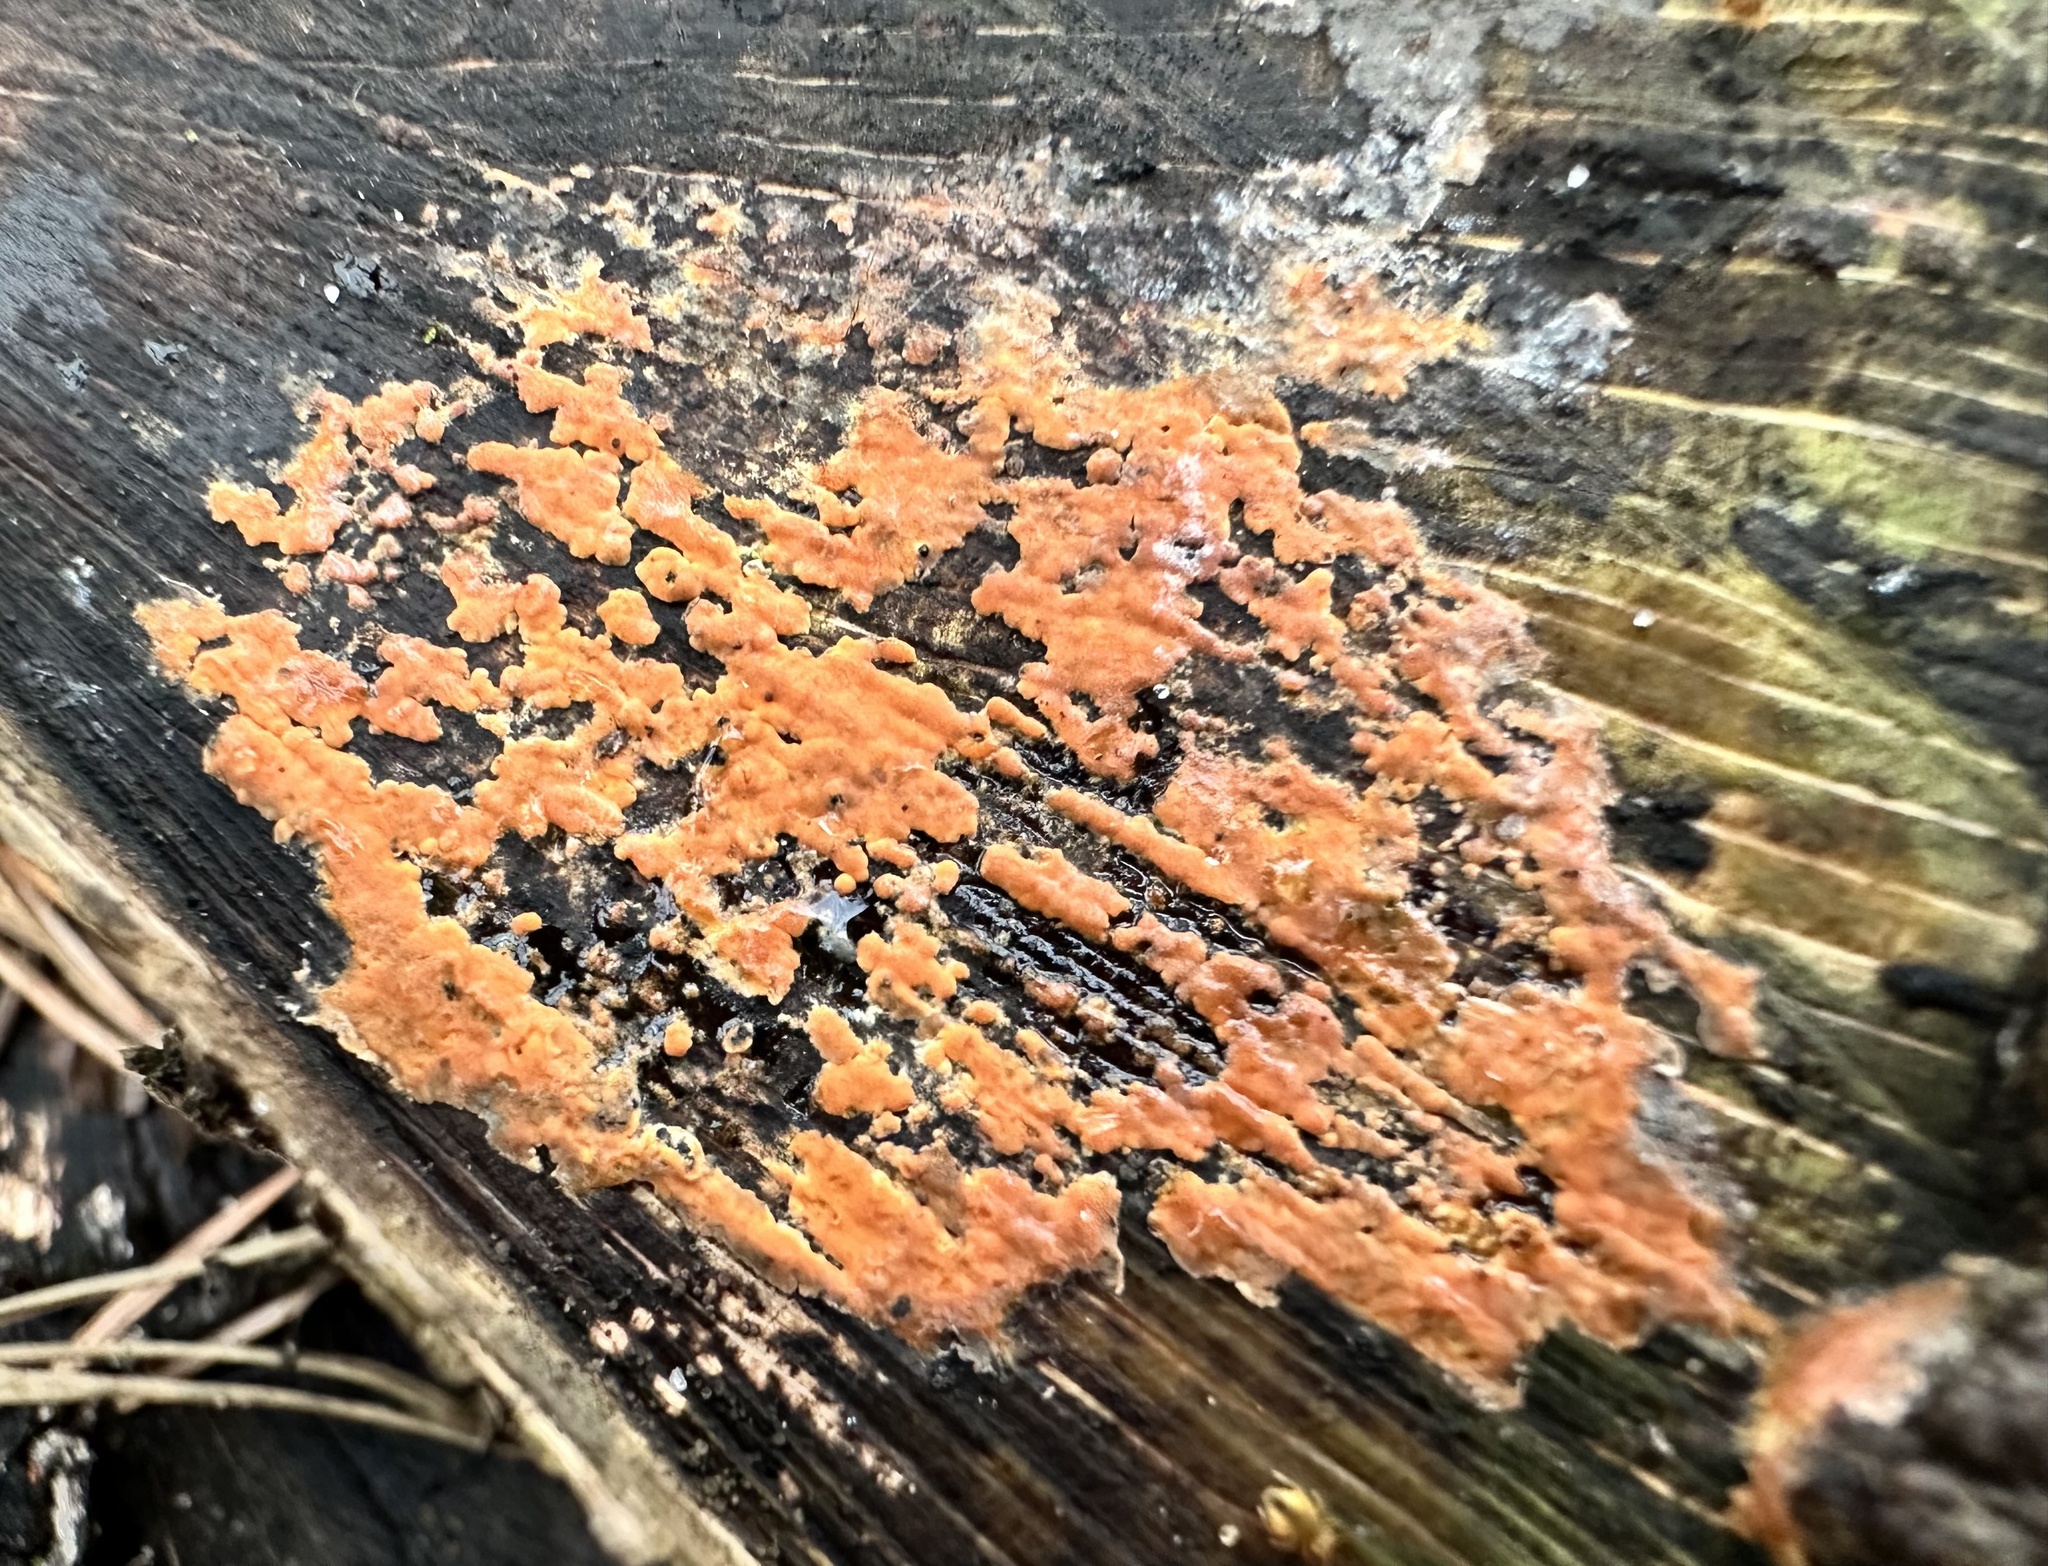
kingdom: Fungi
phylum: Basidiomycota
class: Agaricomycetes
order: Russulales
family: Peniophoraceae
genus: Peniophora
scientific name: Peniophora incarnata
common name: Rosy crust
